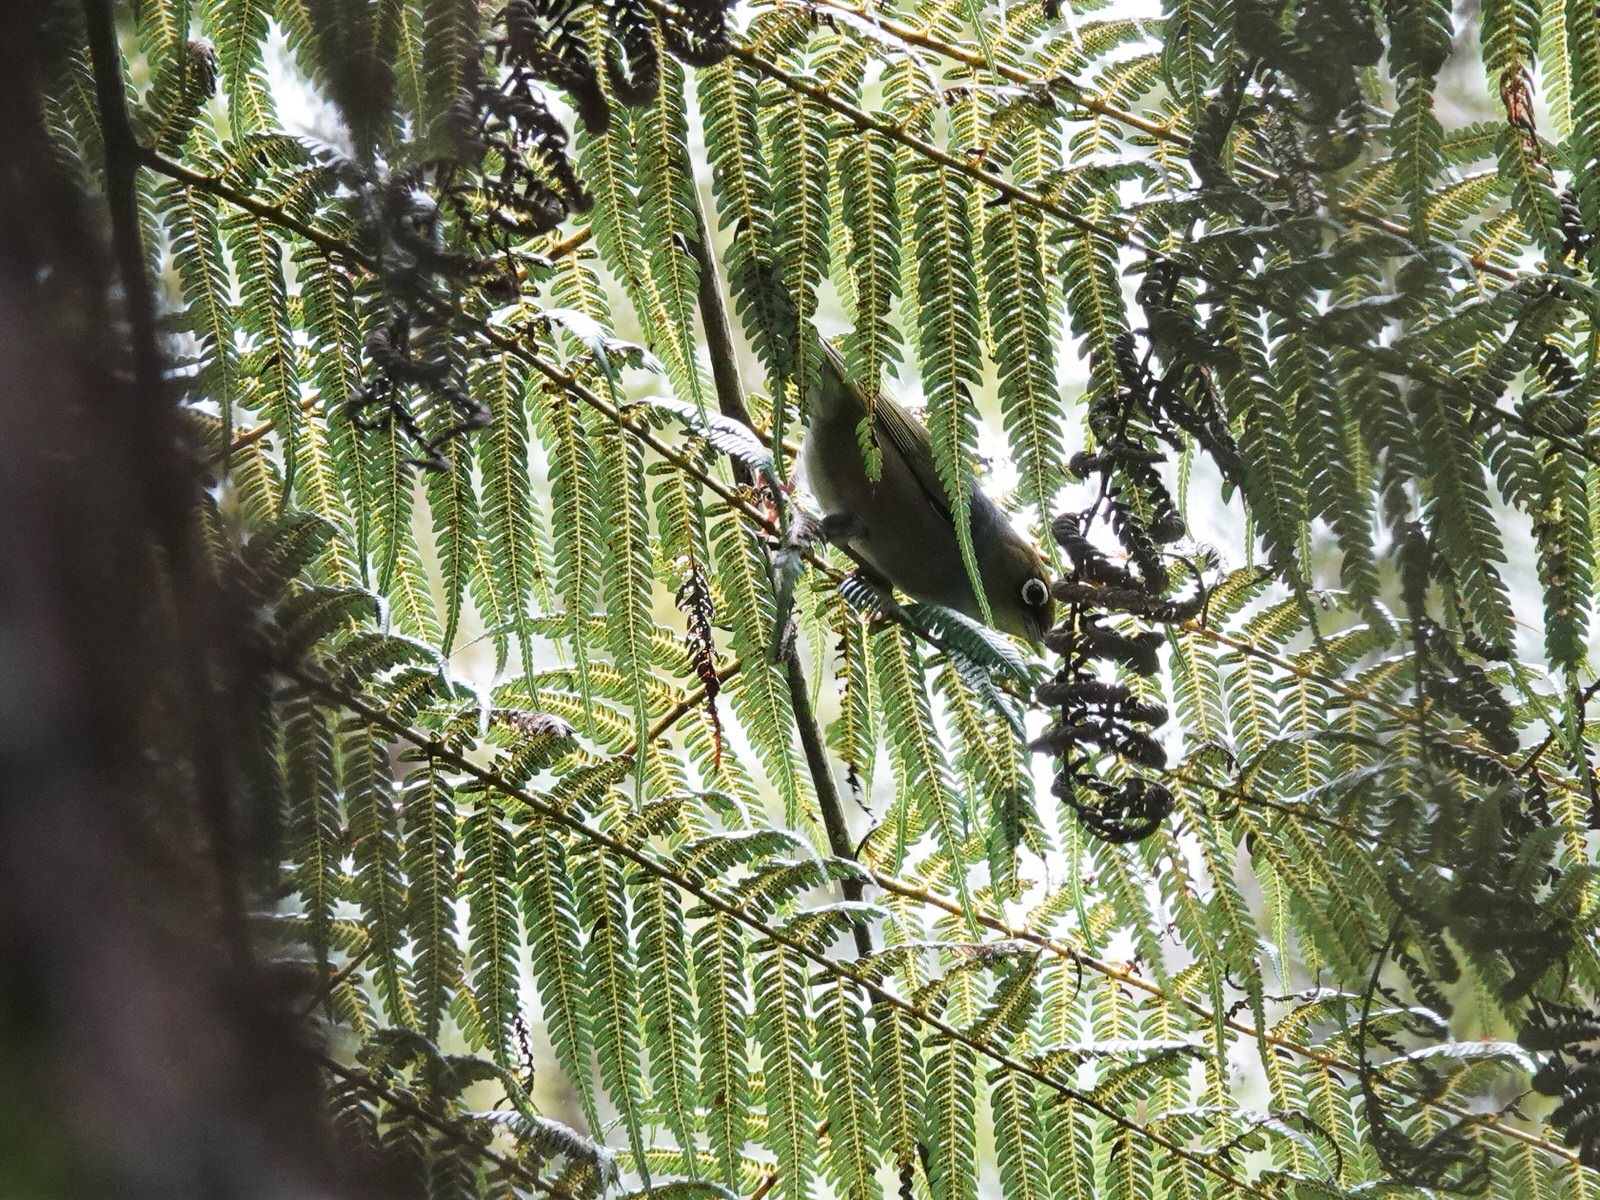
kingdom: Animalia
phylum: Chordata
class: Aves
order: Passeriformes
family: Zosteropidae
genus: Zosterops
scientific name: Zosterops lateralis
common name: Silvereye
